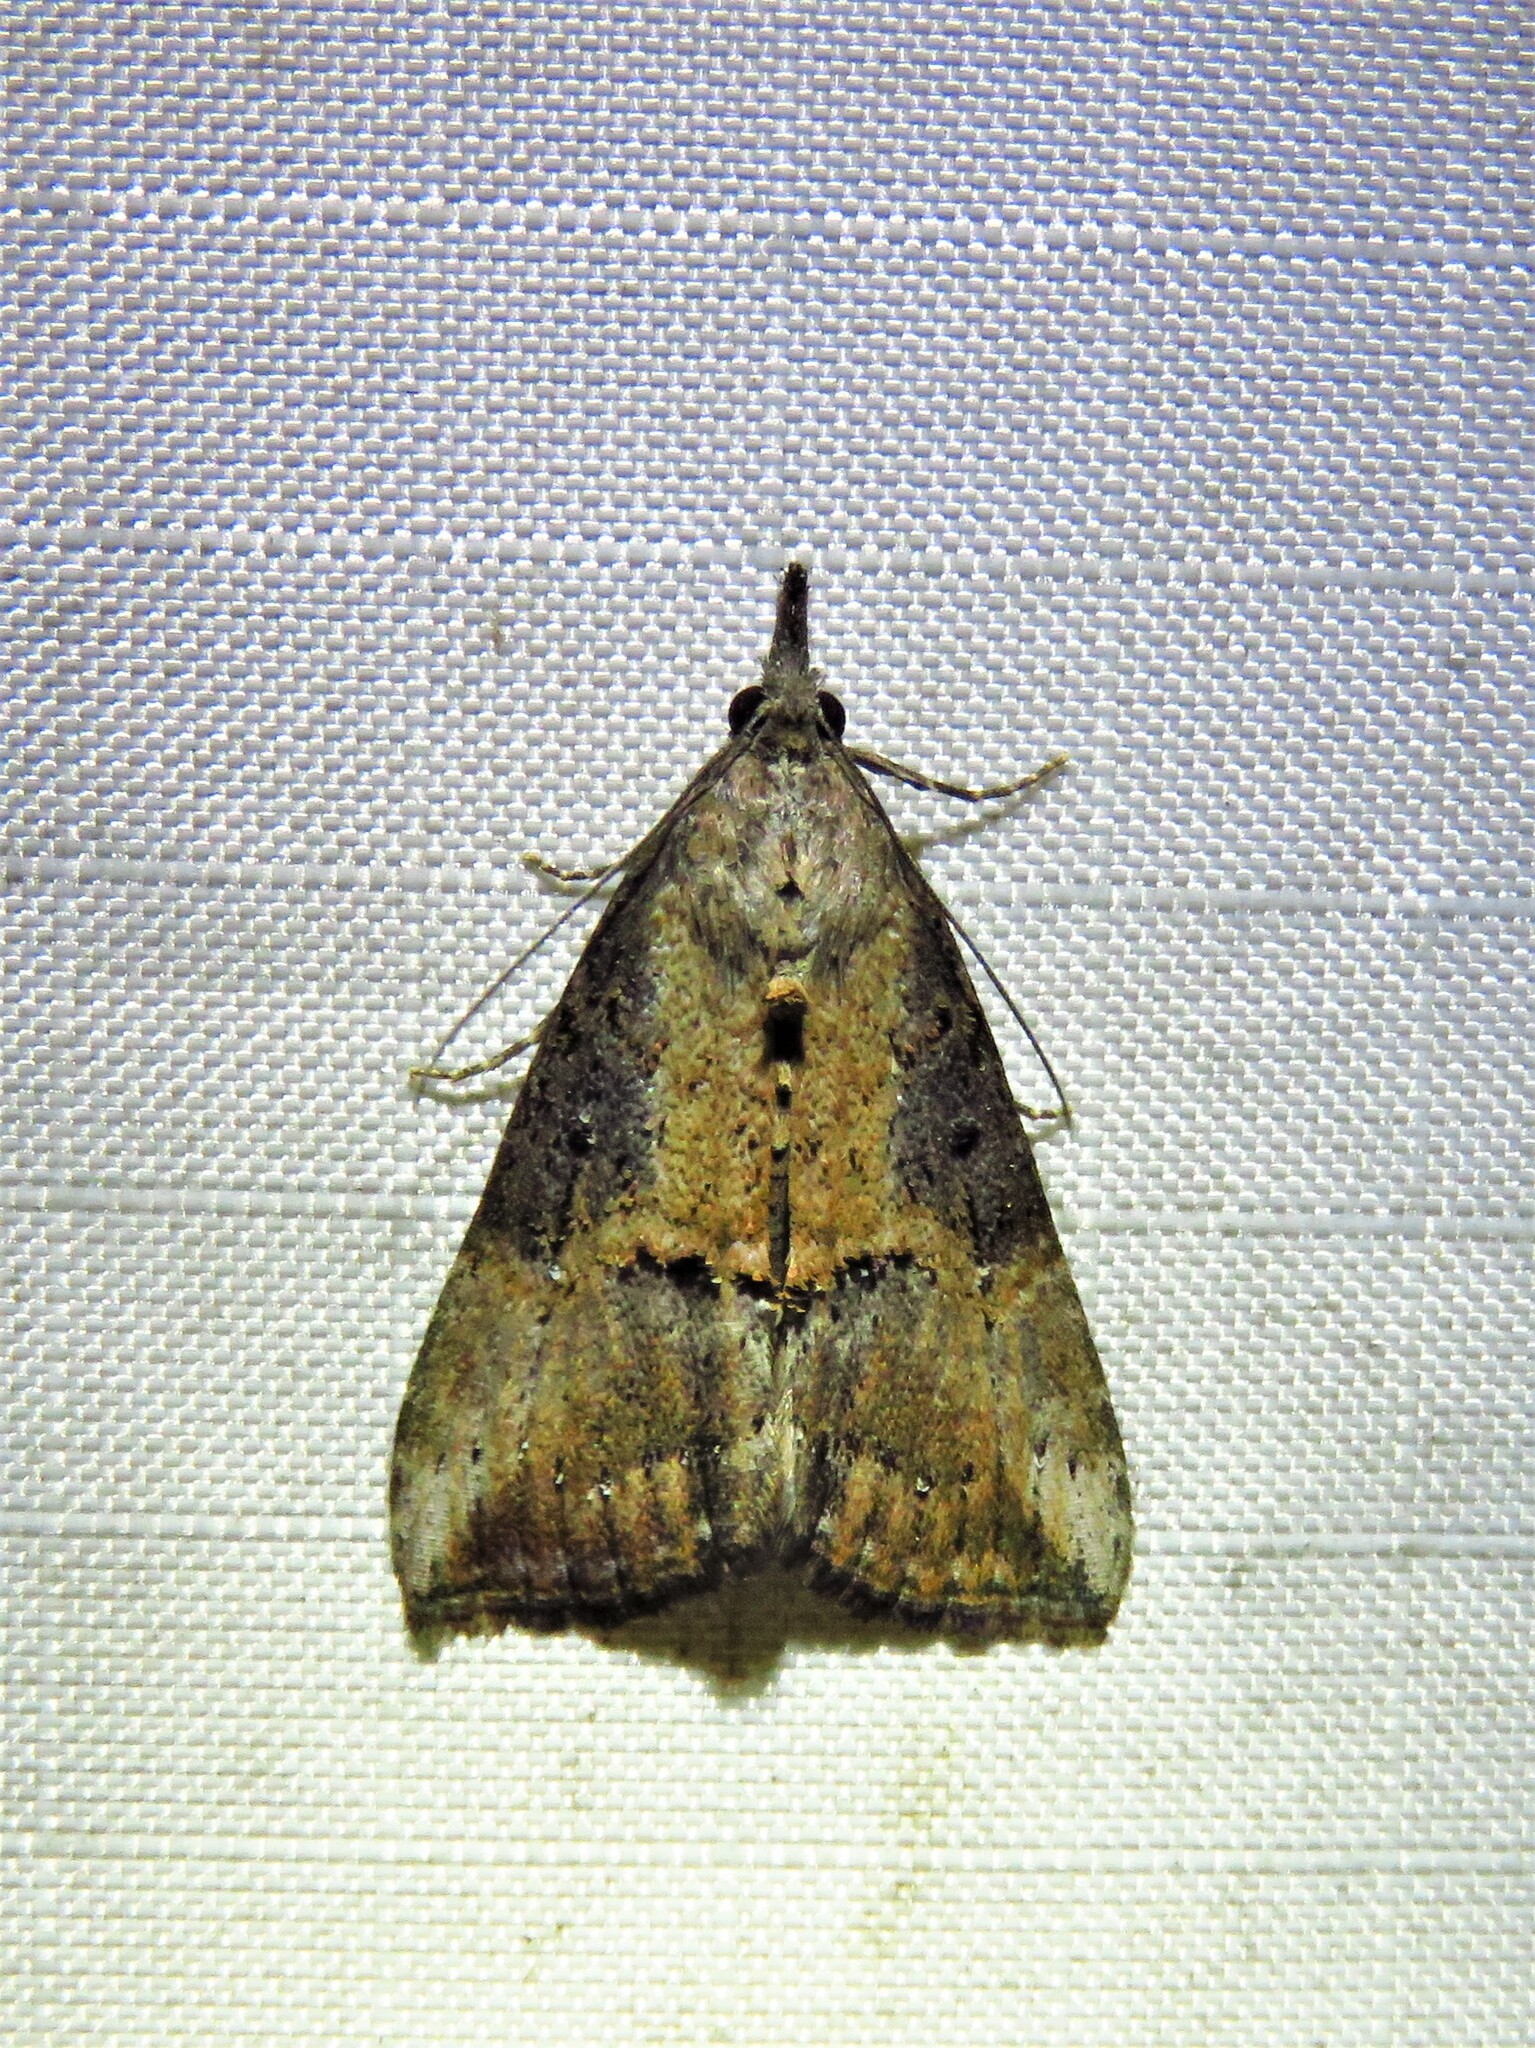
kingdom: Animalia
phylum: Arthropoda
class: Insecta
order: Lepidoptera
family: Erebidae
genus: Hypena
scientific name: Hypena scabra
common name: Green cloverworm
